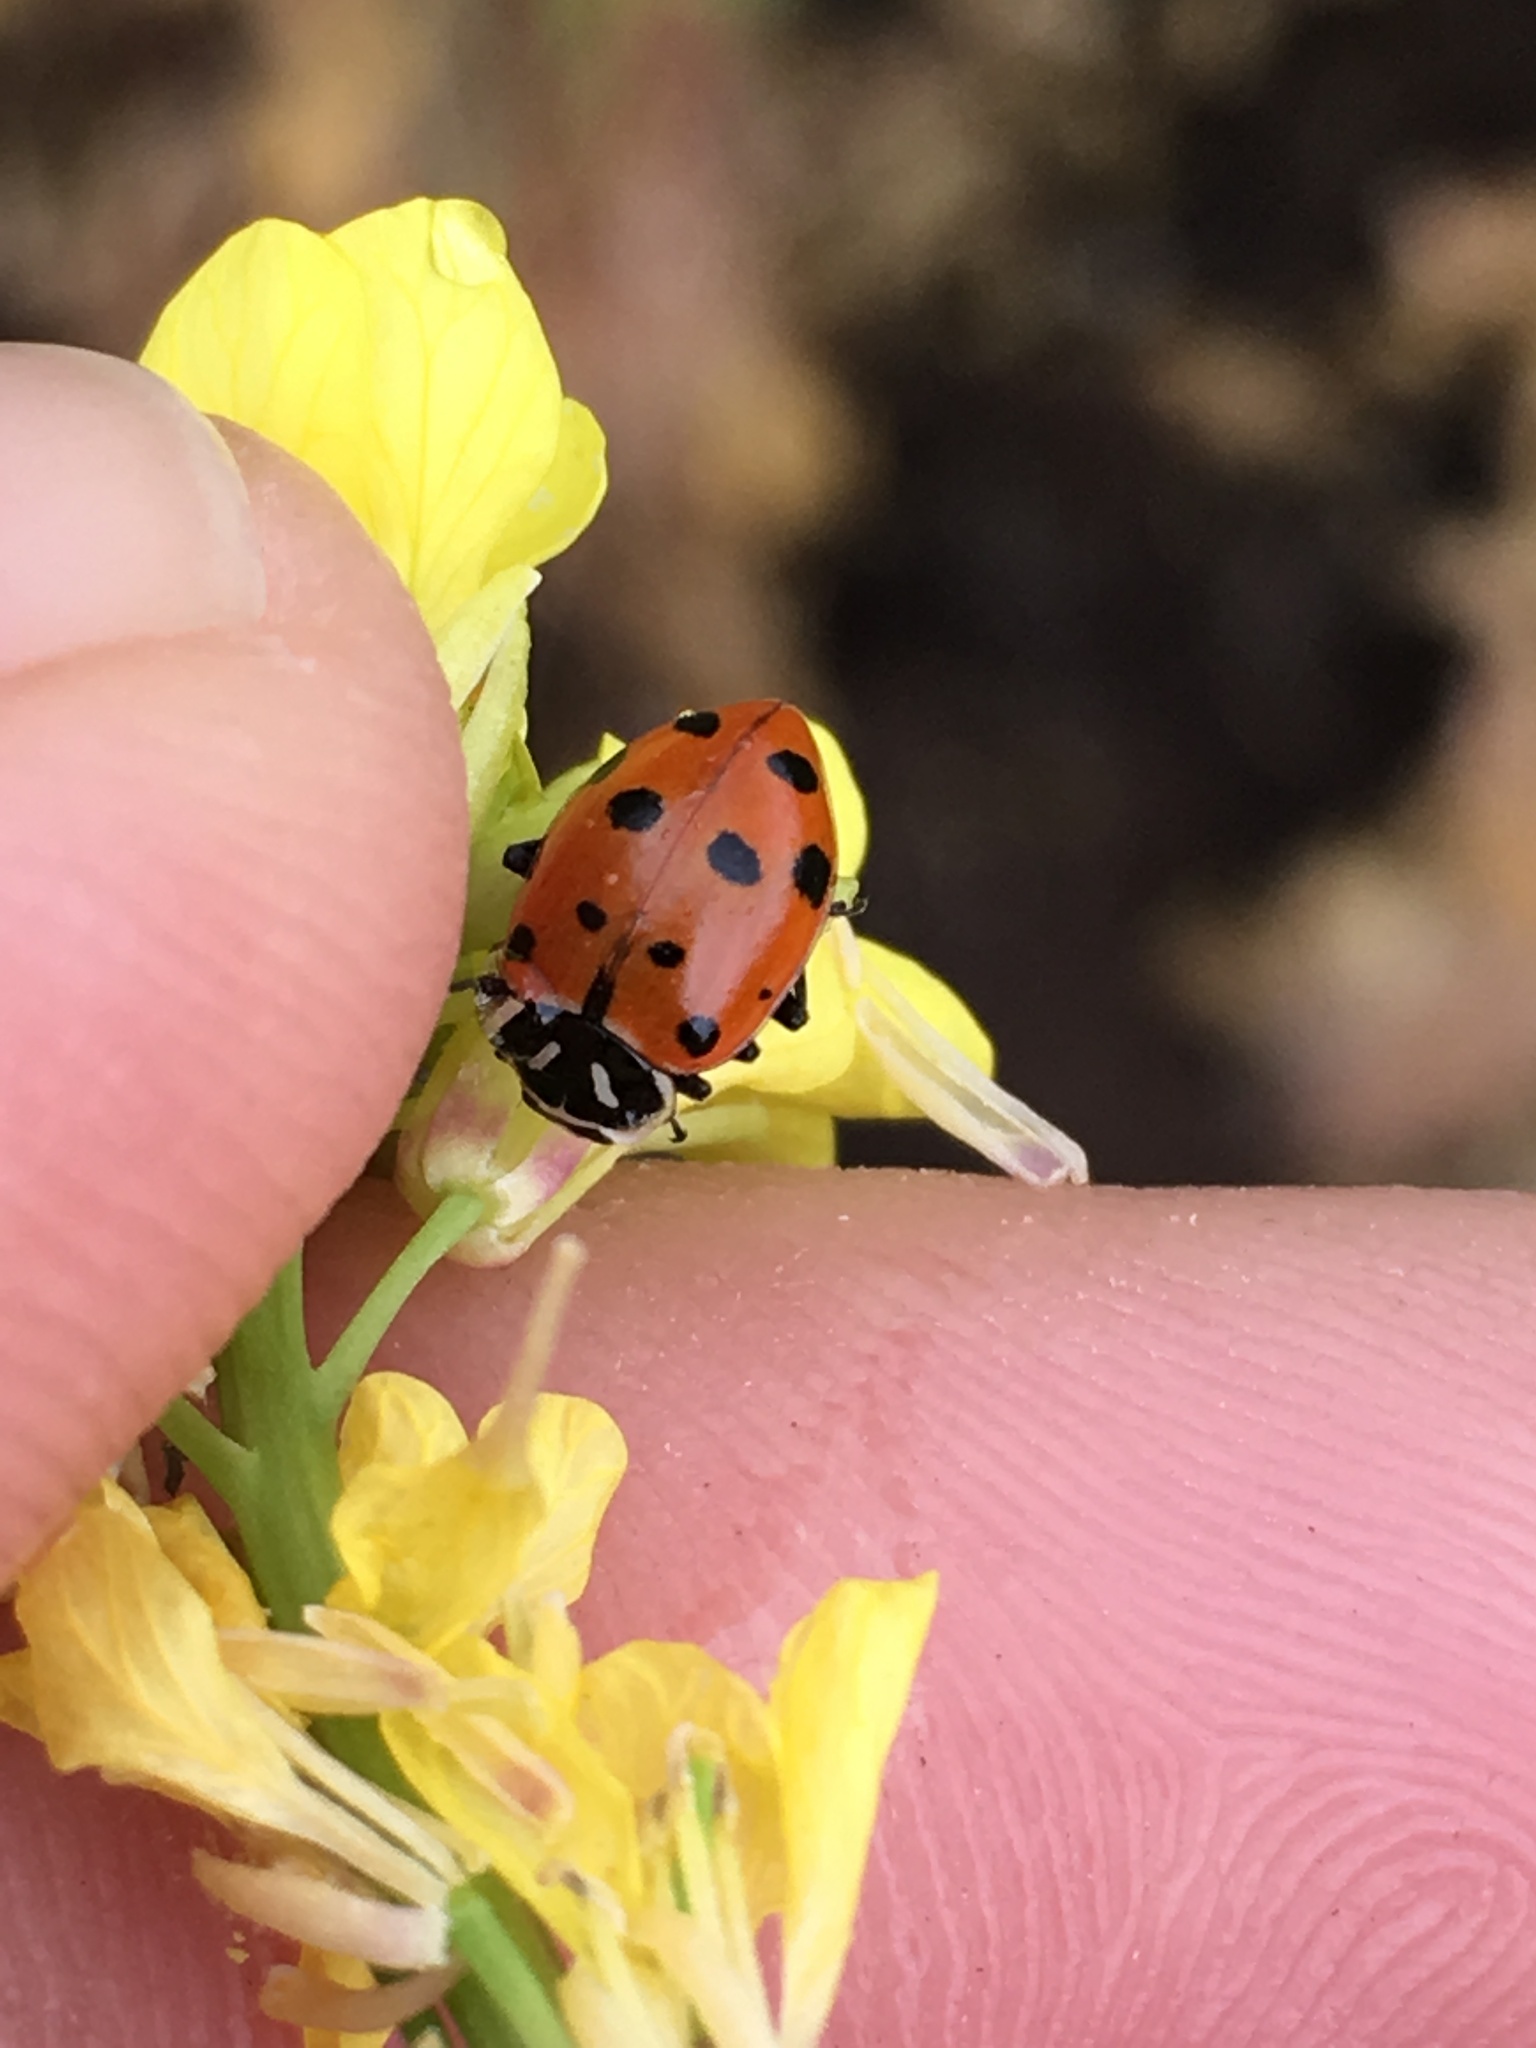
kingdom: Animalia
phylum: Arthropoda
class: Insecta
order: Coleoptera
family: Coccinellidae
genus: Hippodamia
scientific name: Hippodamia convergens
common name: Convergent lady beetle
